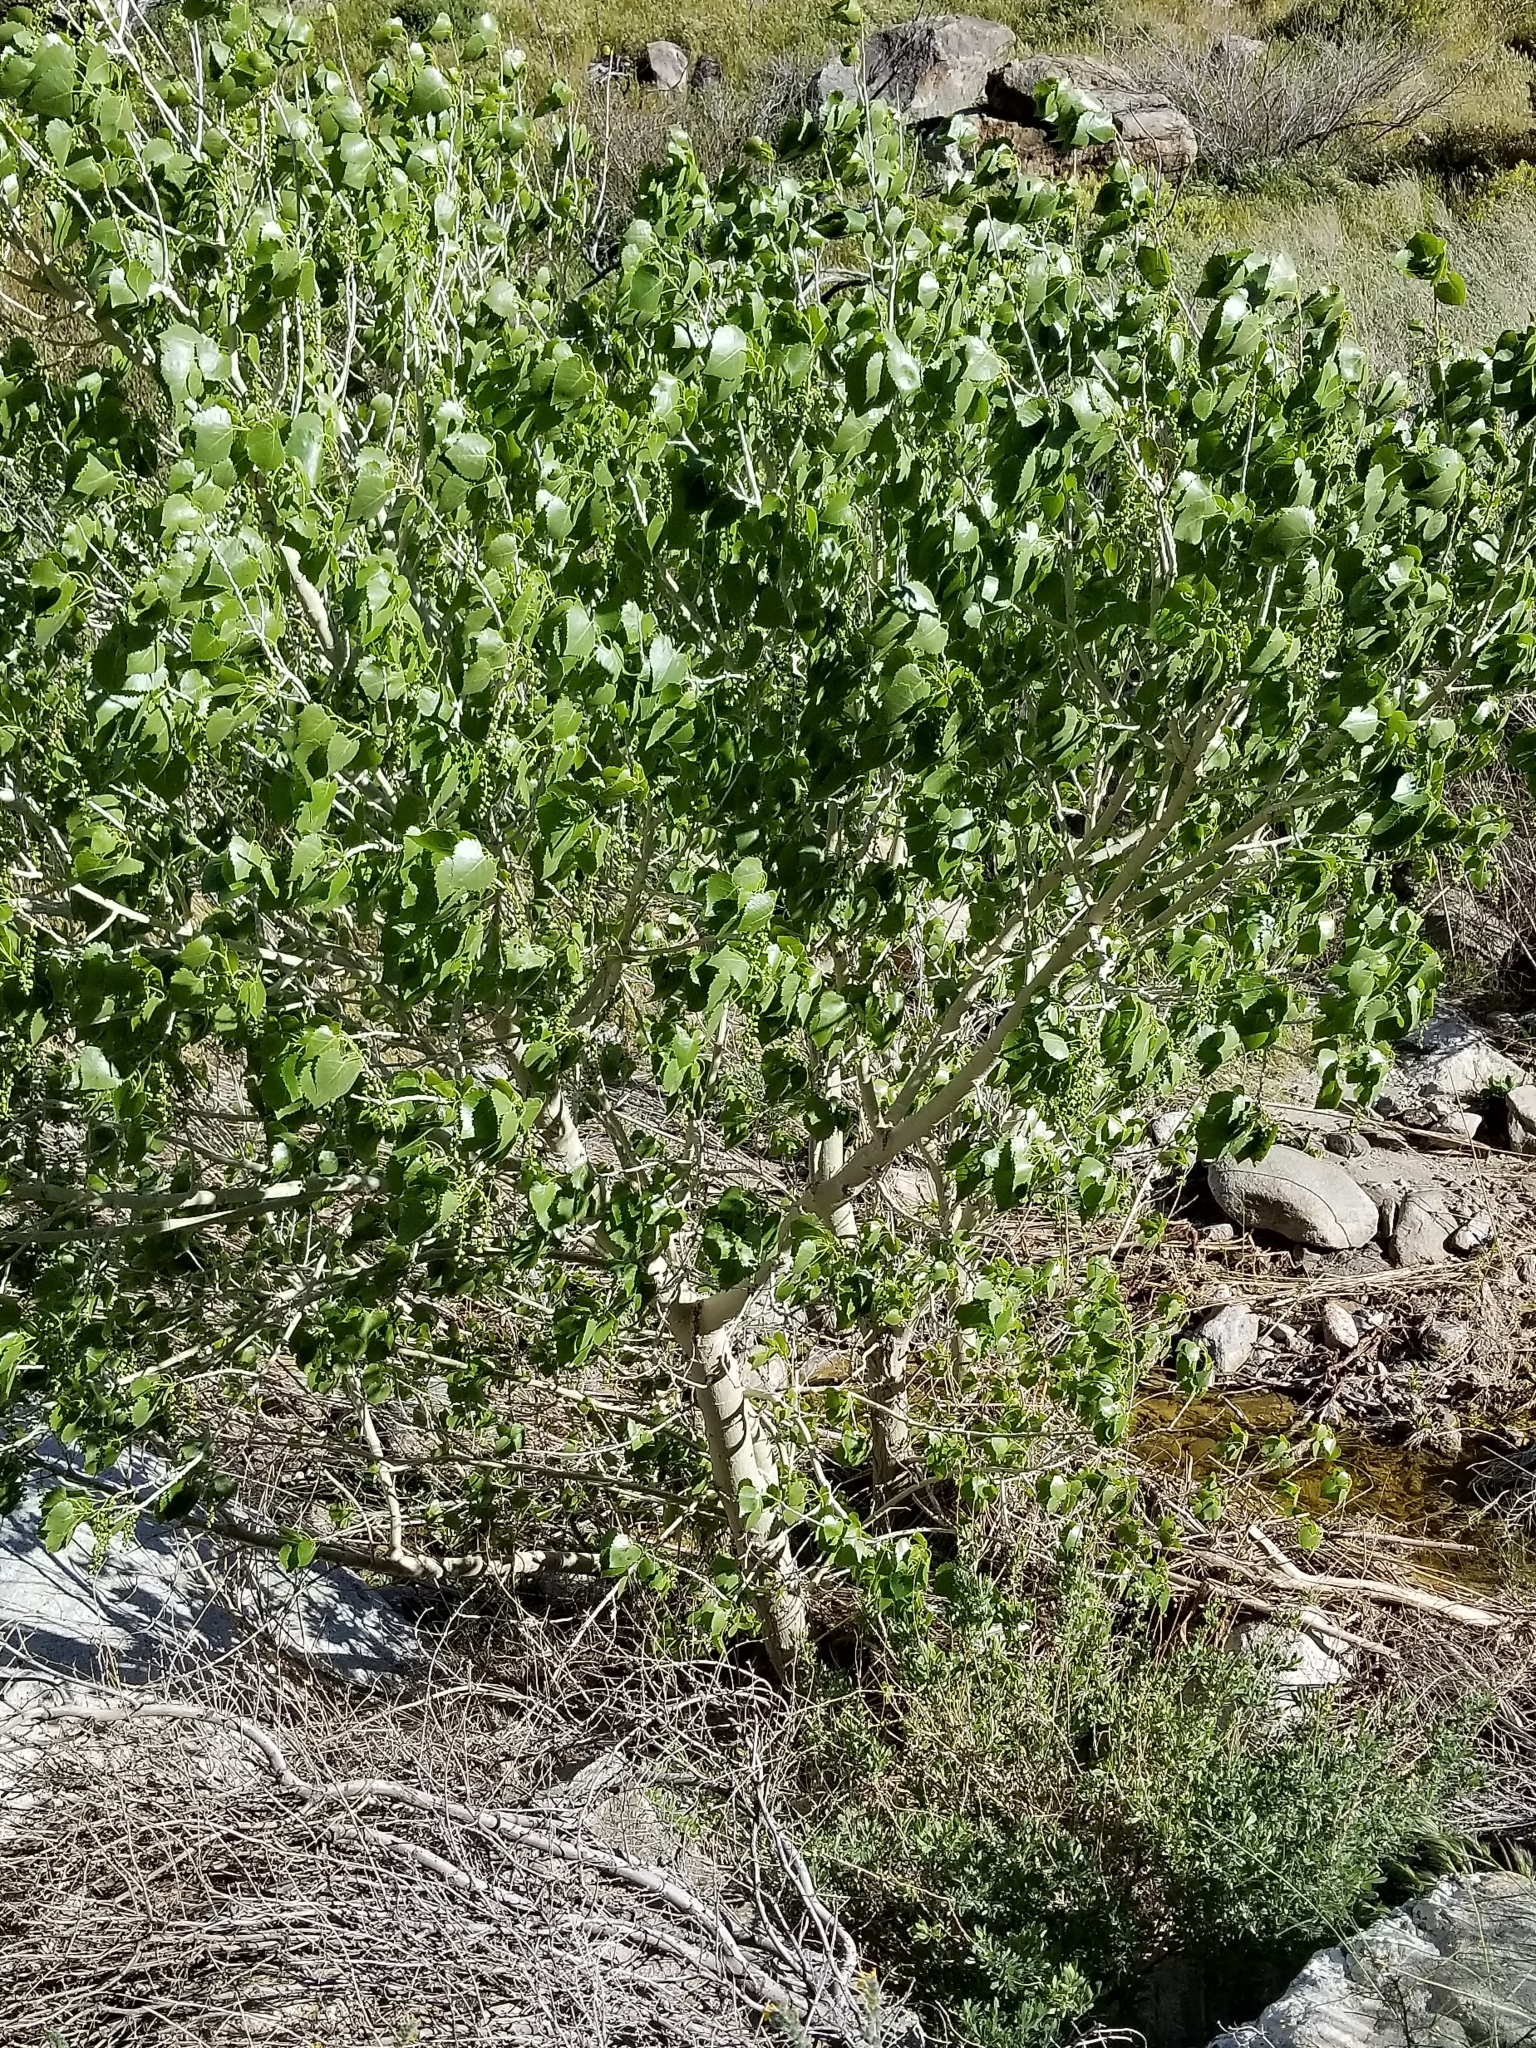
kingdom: Plantae
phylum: Tracheophyta
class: Magnoliopsida
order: Malpighiales
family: Salicaceae
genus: Populus
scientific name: Populus fremontii
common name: Fremont's cottonwood
